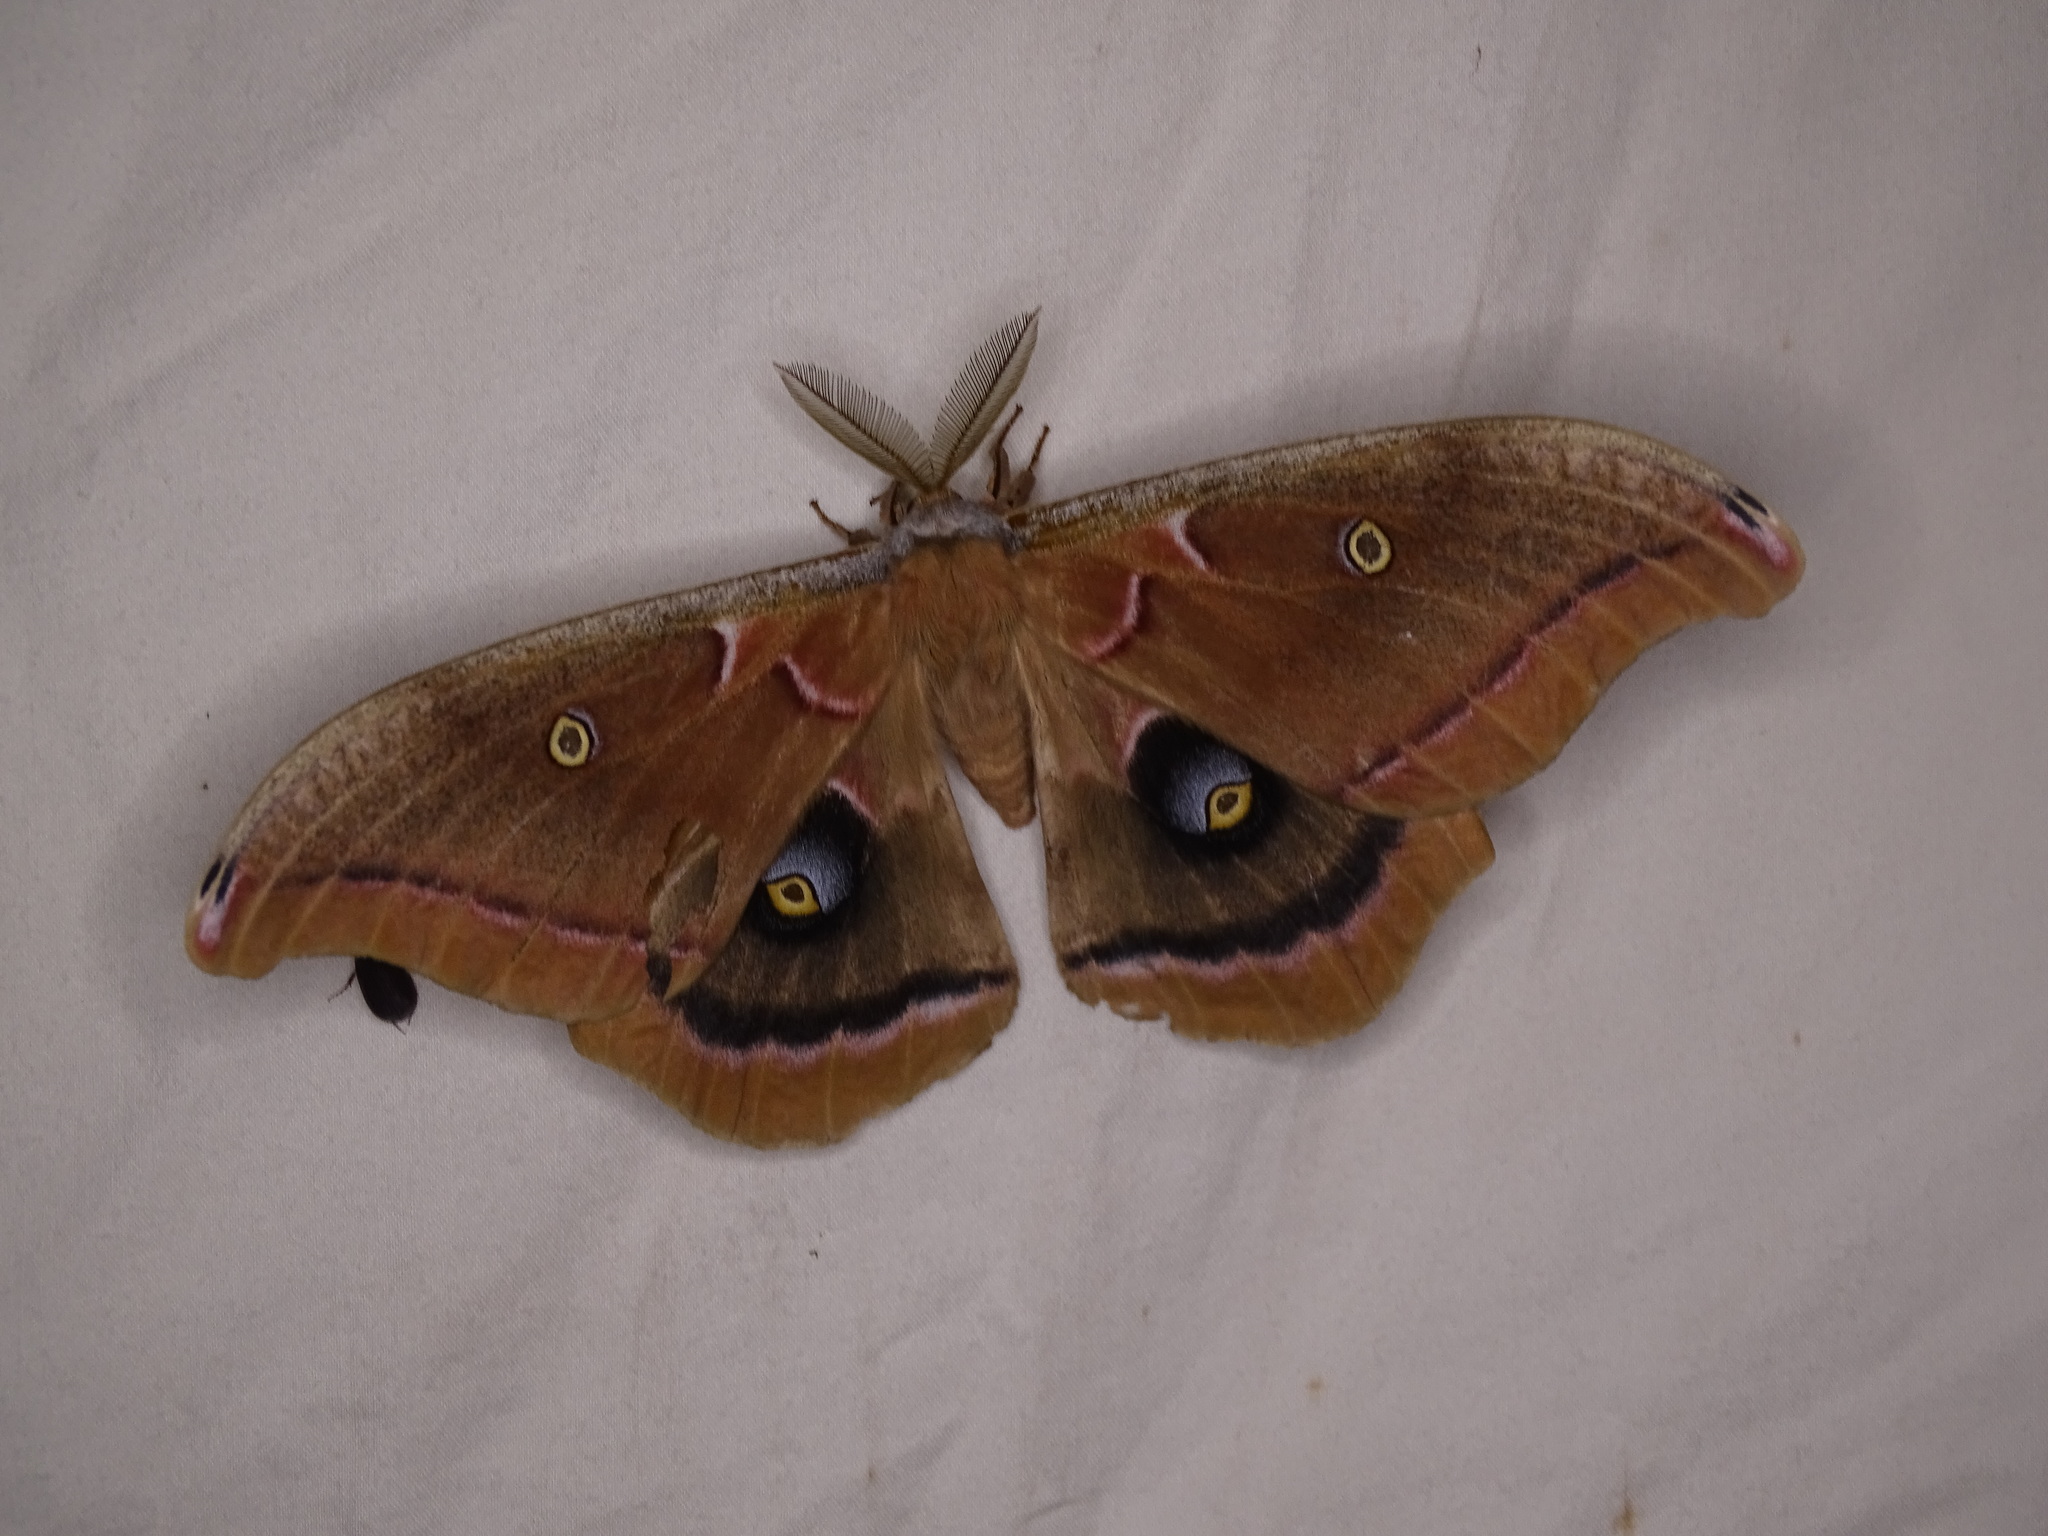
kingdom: Animalia
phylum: Arthropoda
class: Insecta
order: Lepidoptera
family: Saturniidae
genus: Antheraea
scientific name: Antheraea polyphemus
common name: Polyphemus moth
